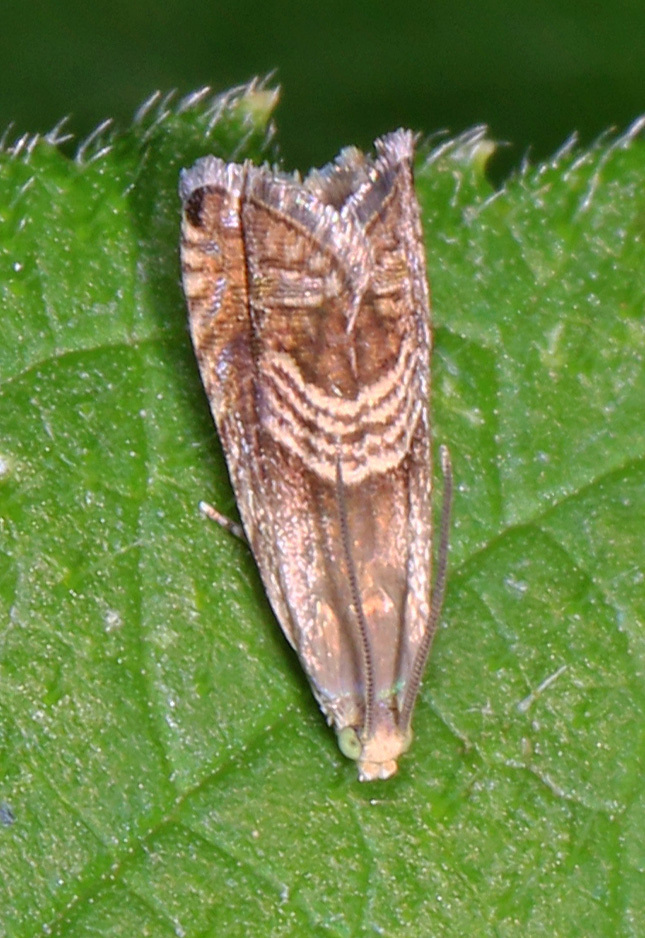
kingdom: Animalia
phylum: Arthropoda
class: Insecta
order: Lepidoptera
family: Tortricidae
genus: Grapholita
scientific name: Grapholita tristrigana
